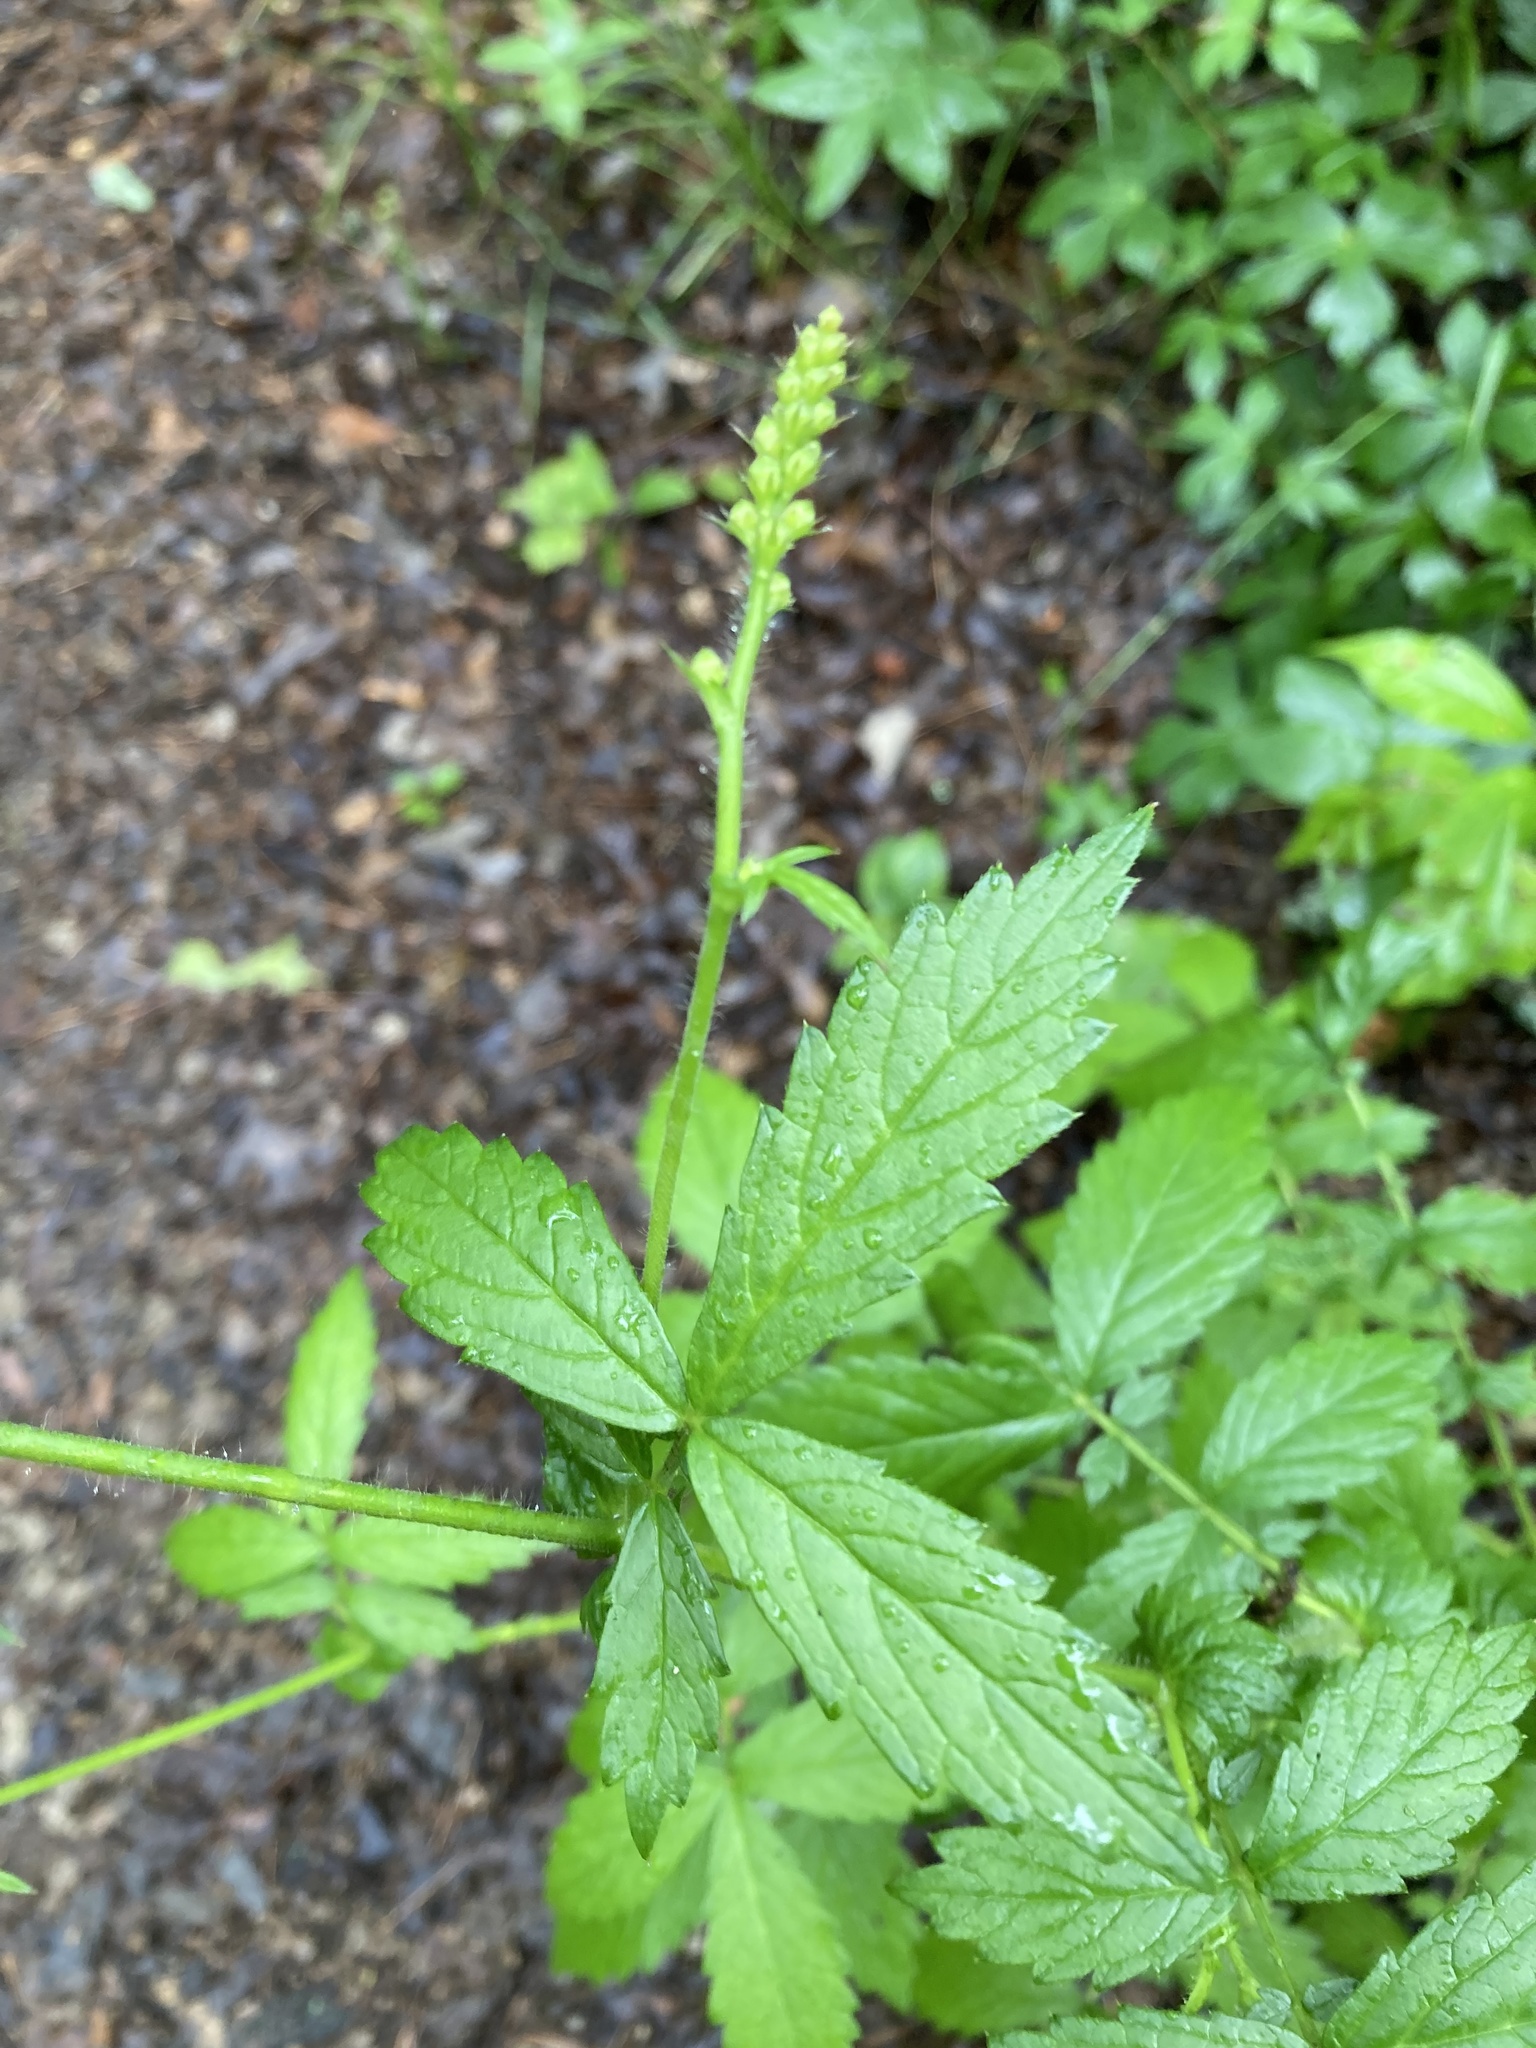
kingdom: Plantae
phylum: Tracheophyta
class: Magnoliopsida
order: Rosales
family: Rosaceae
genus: Agrimonia
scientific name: Agrimonia gryposepala
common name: Common agrimony
